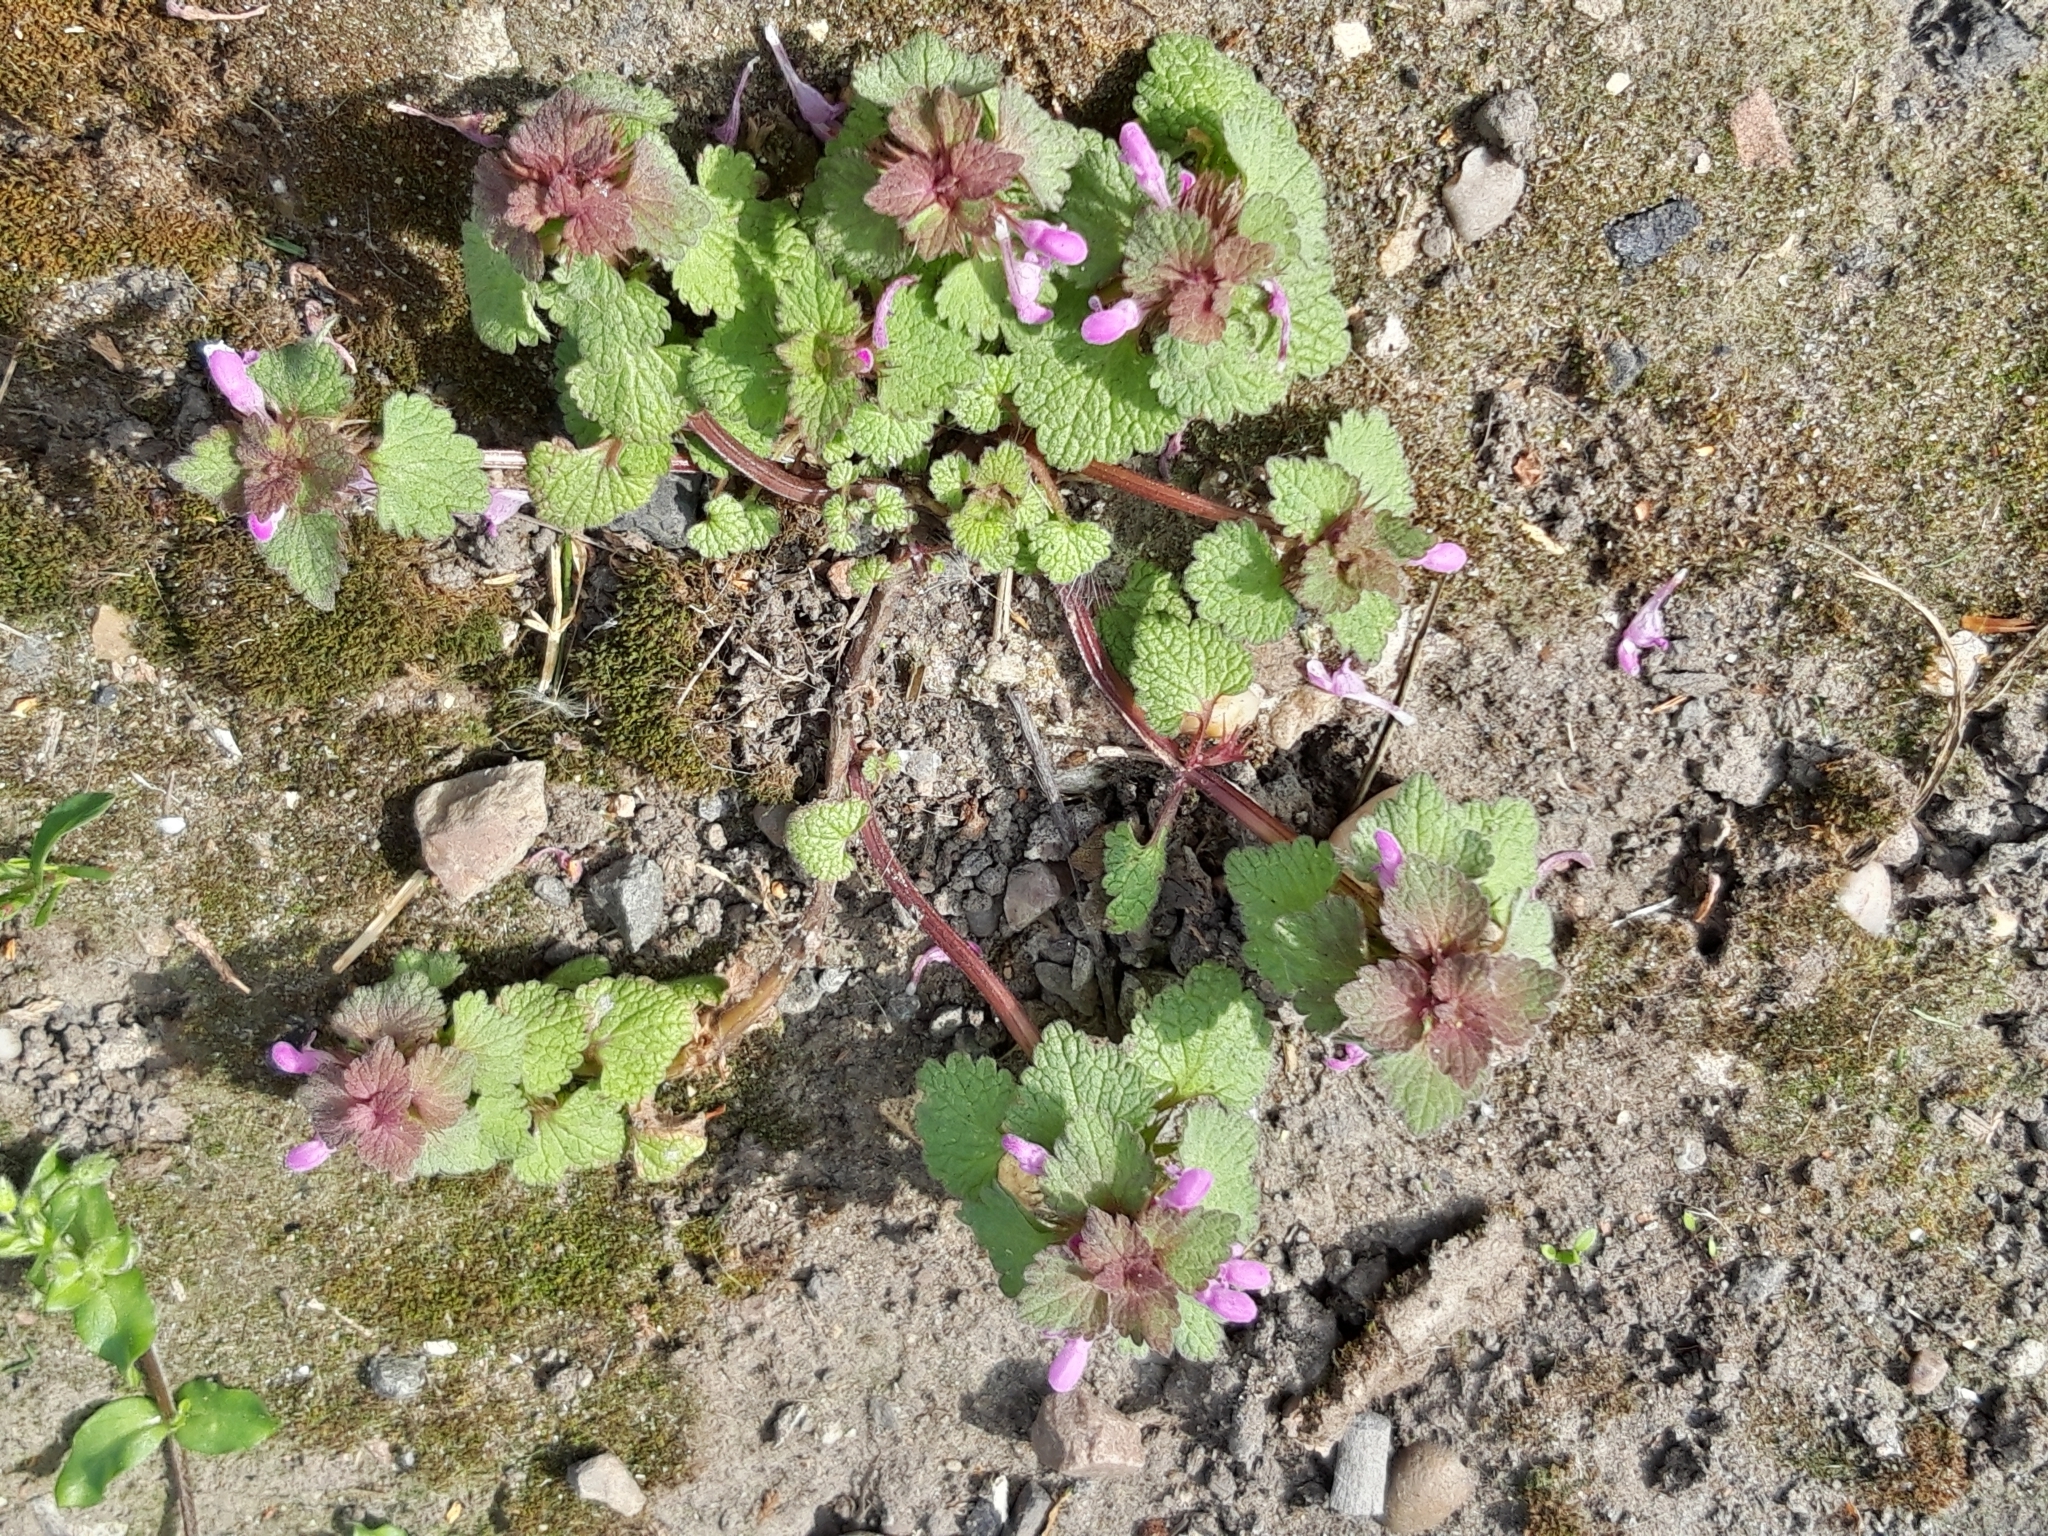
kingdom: Plantae
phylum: Tracheophyta
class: Magnoliopsida
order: Lamiales
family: Lamiaceae
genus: Lamium
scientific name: Lamium purpureum
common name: Red dead-nettle
